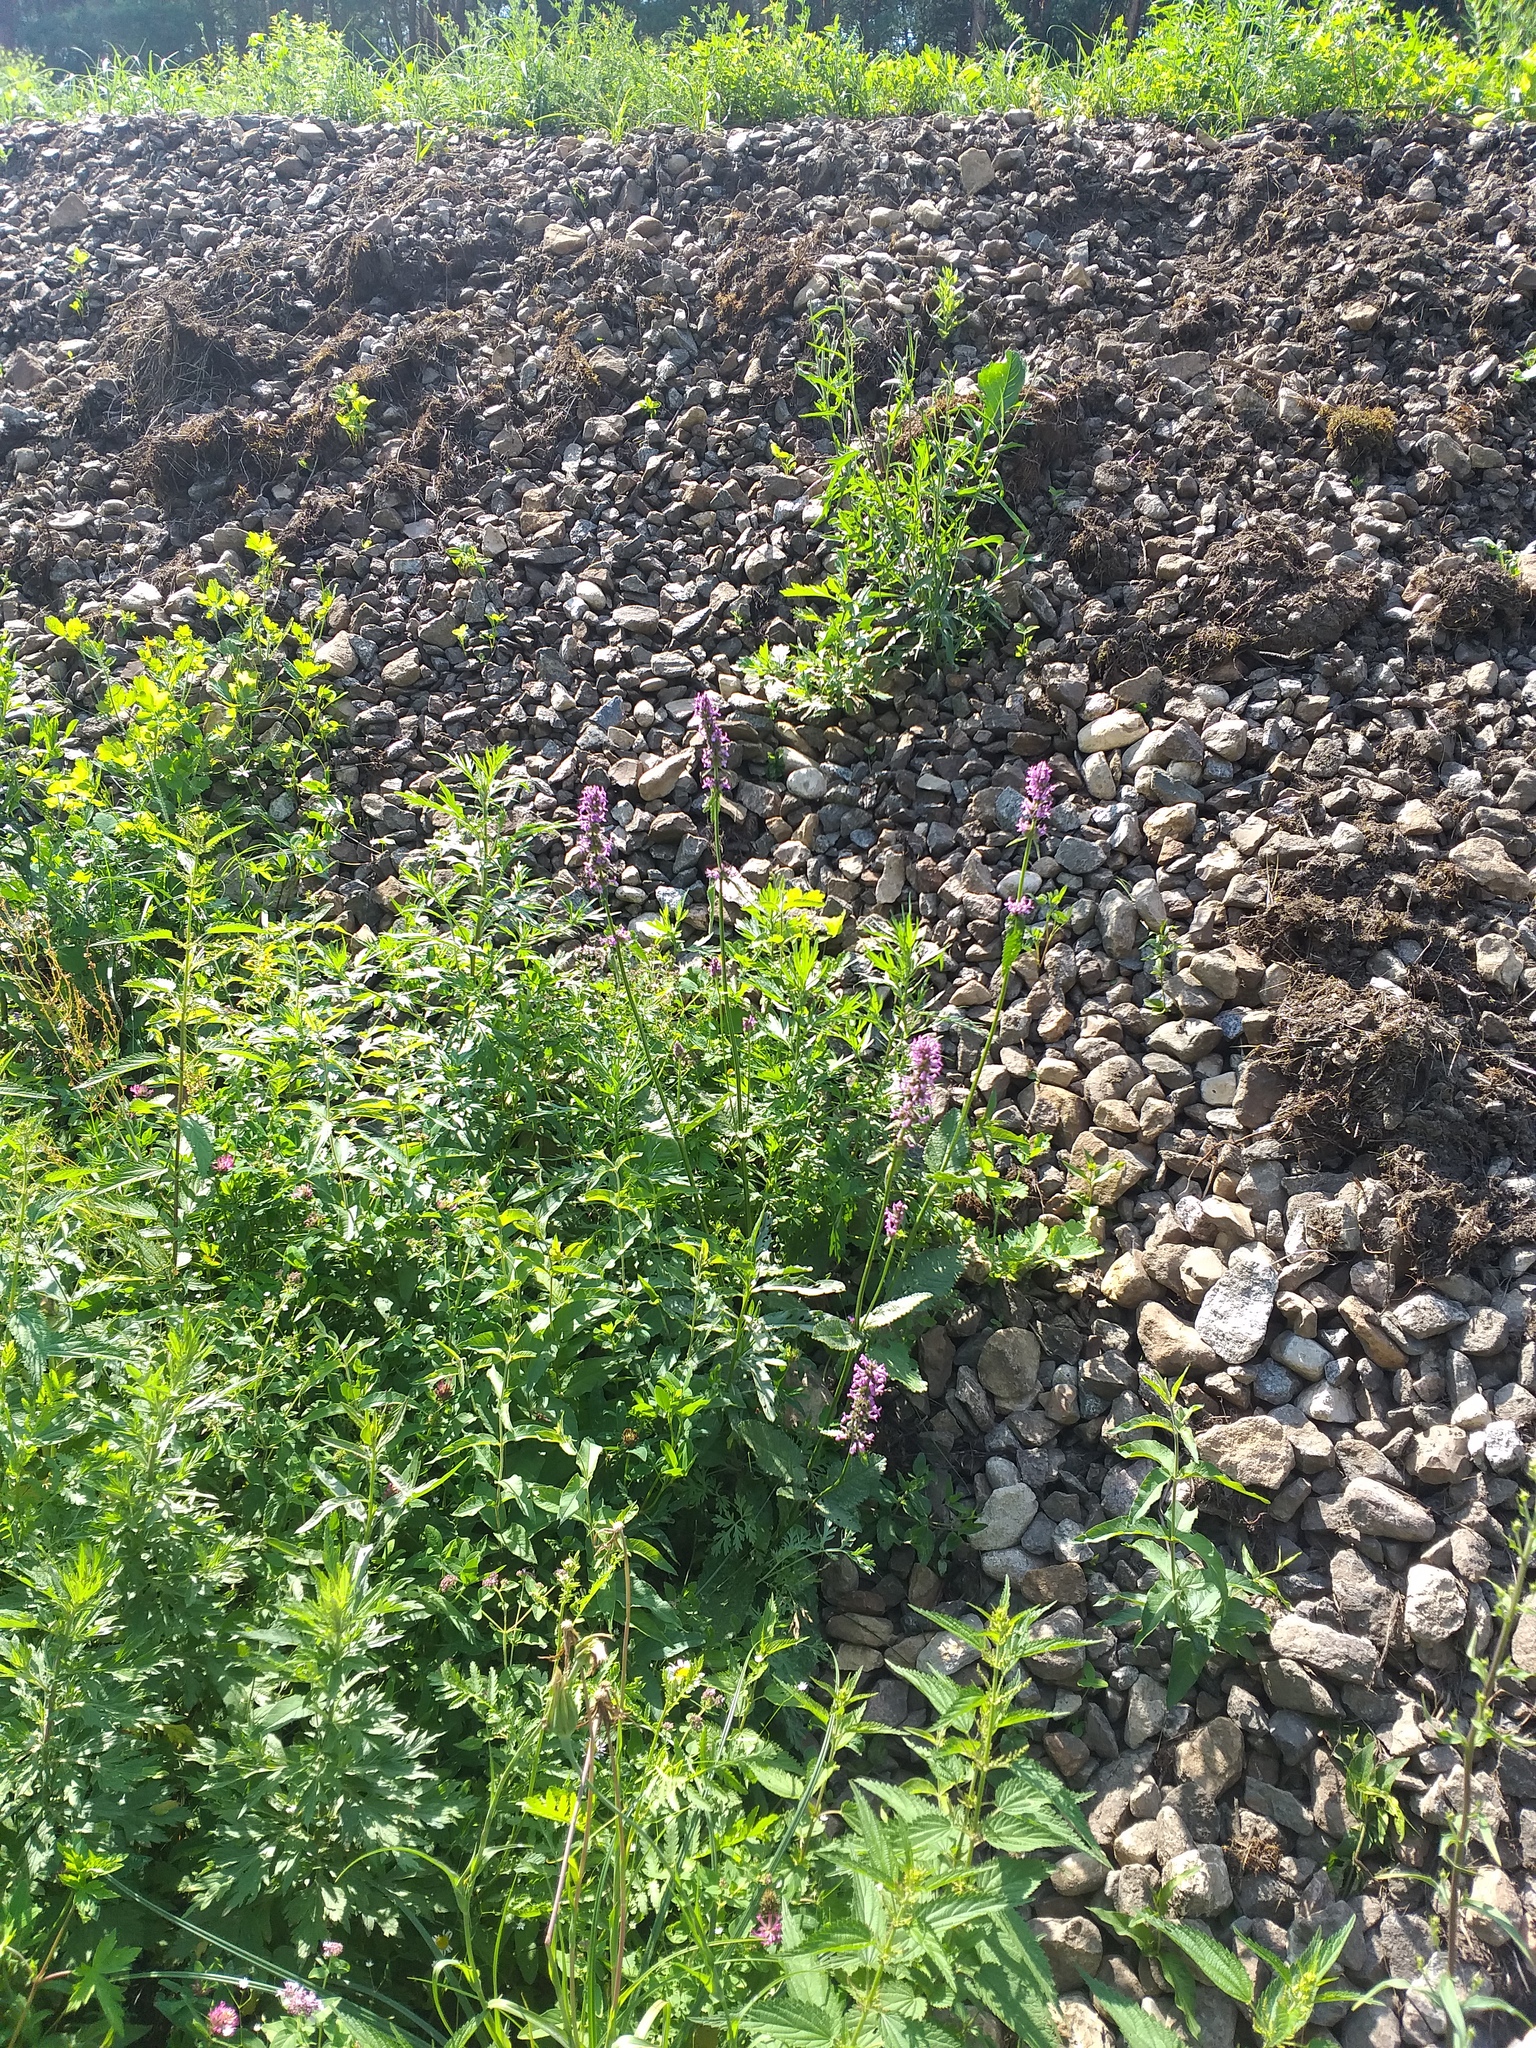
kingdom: Plantae
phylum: Tracheophyta
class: Magnoliopsida
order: Lamiales
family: Lamiaceae
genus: Betonica
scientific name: Betonica officinalis
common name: Bishop's-wort
